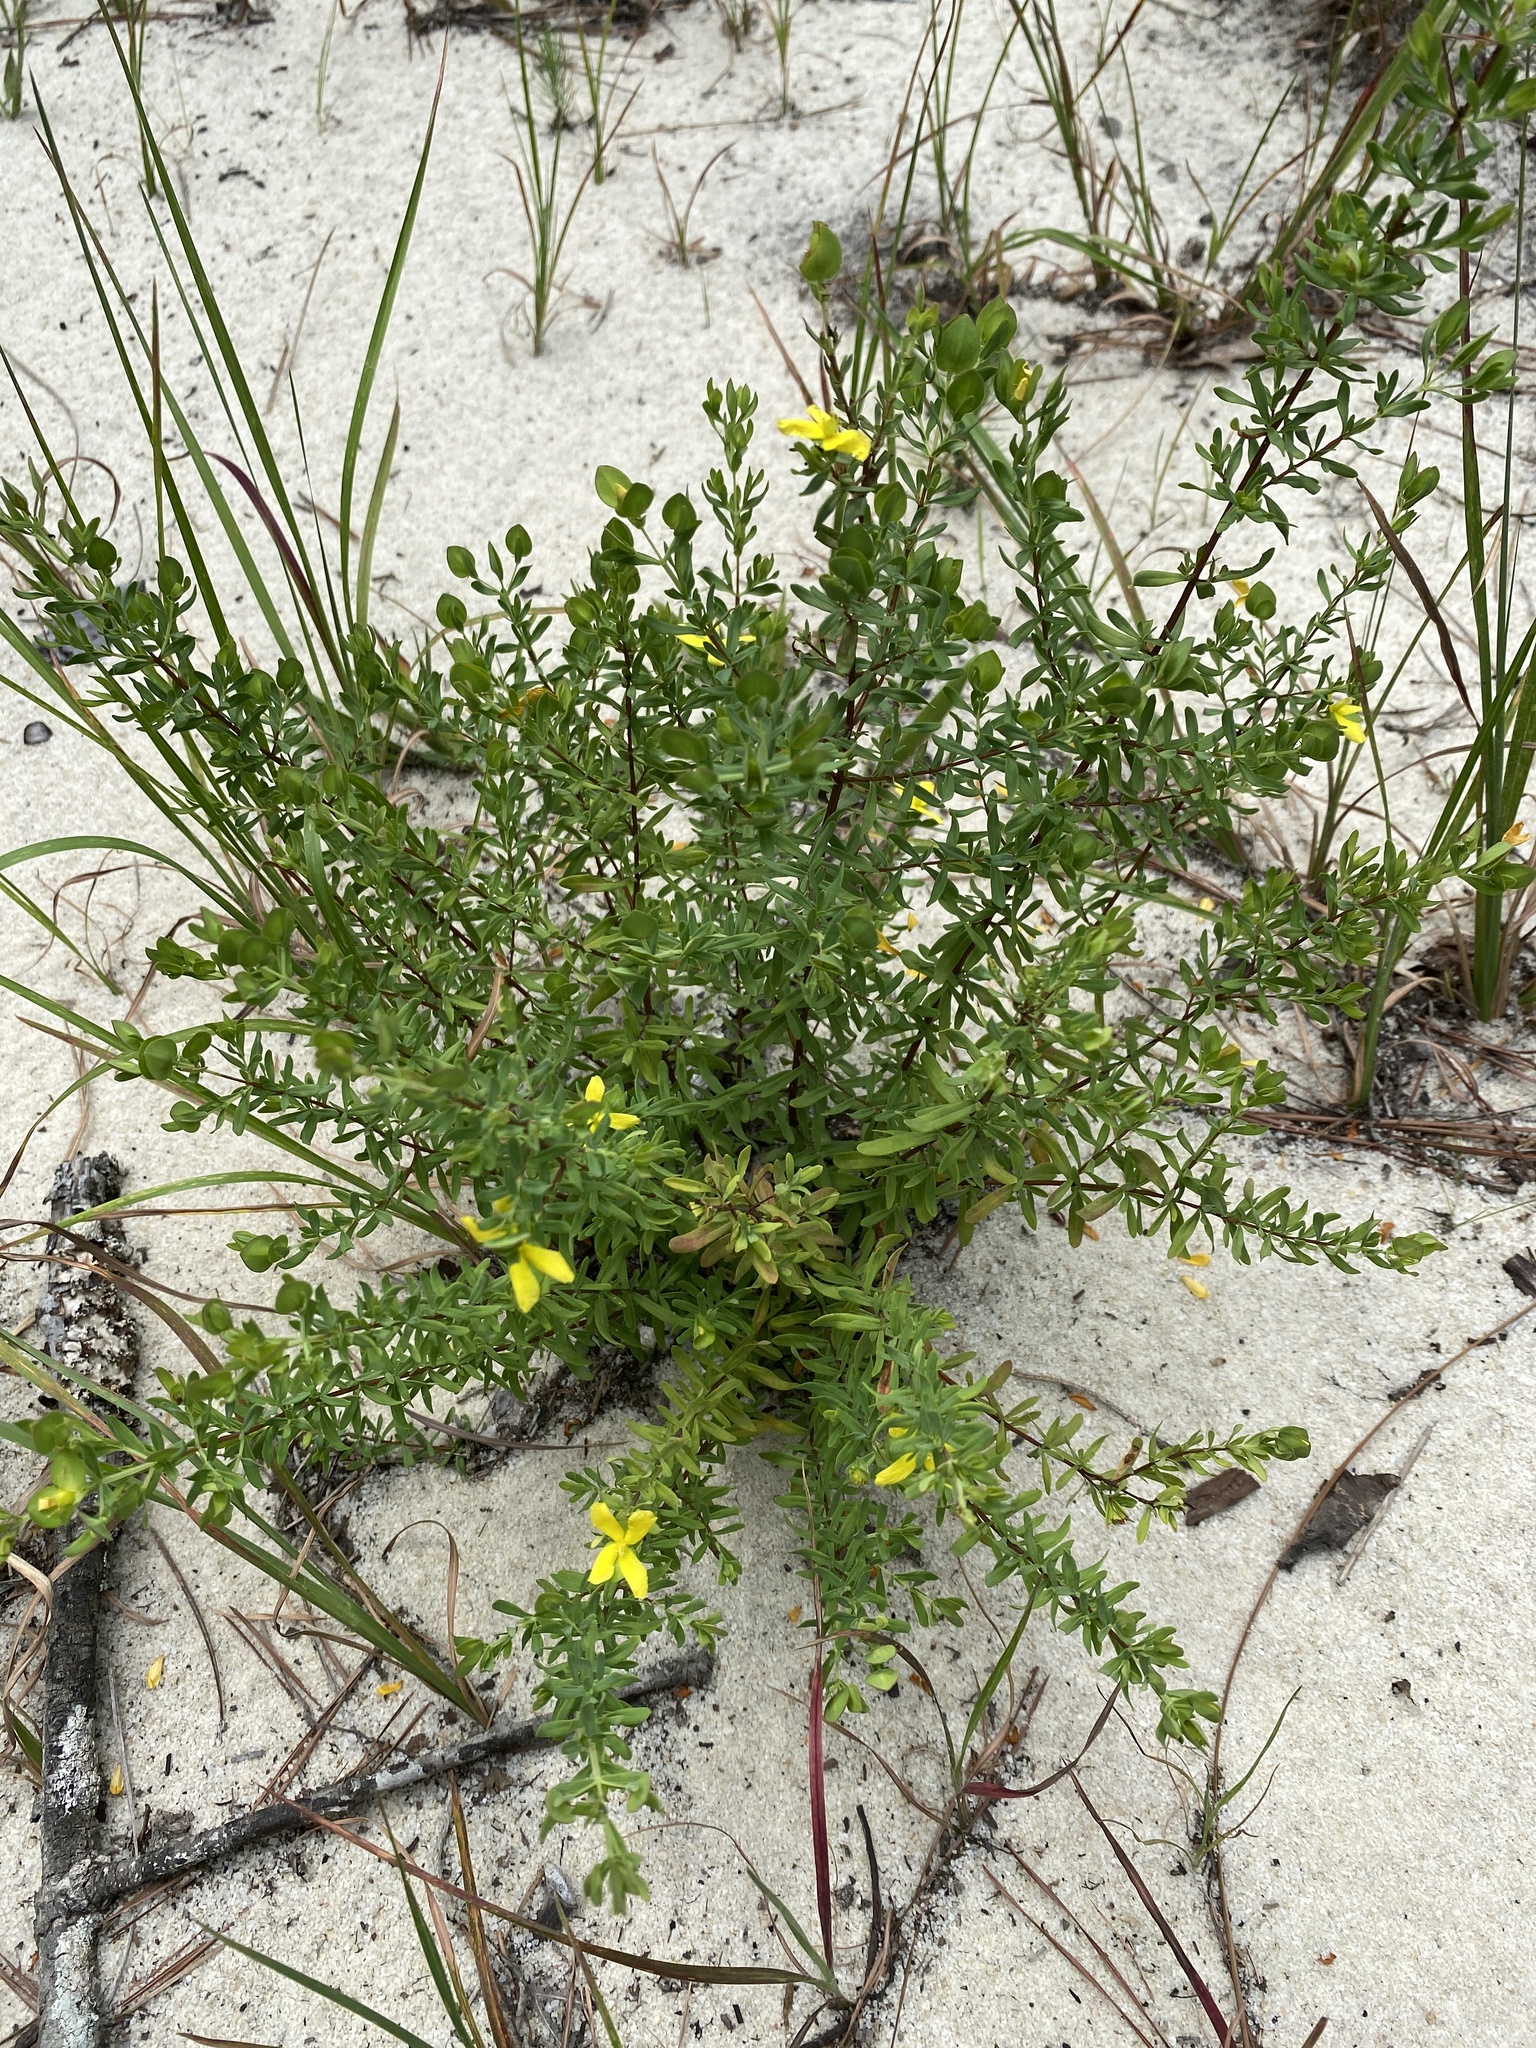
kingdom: Plantae
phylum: Tracheophyta
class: Magnoliopsida
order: Malpighiales
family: Hypericaceae
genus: Hypericum
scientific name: Hypericum hypericoides
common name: St. andrew's cross
